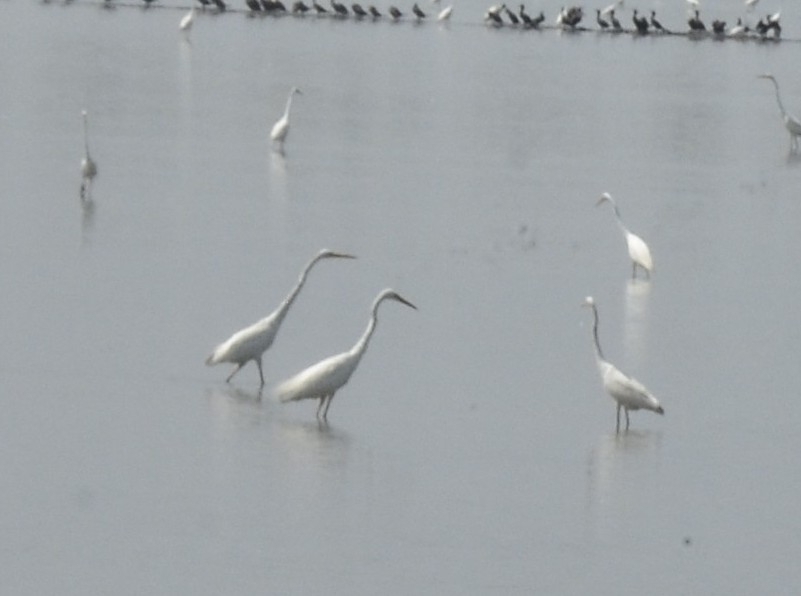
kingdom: Animalia
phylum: Chordata
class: Aves
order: Pelecaniformes
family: Ardeidae
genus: Ardea
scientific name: Ardea alba
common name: Great egret
